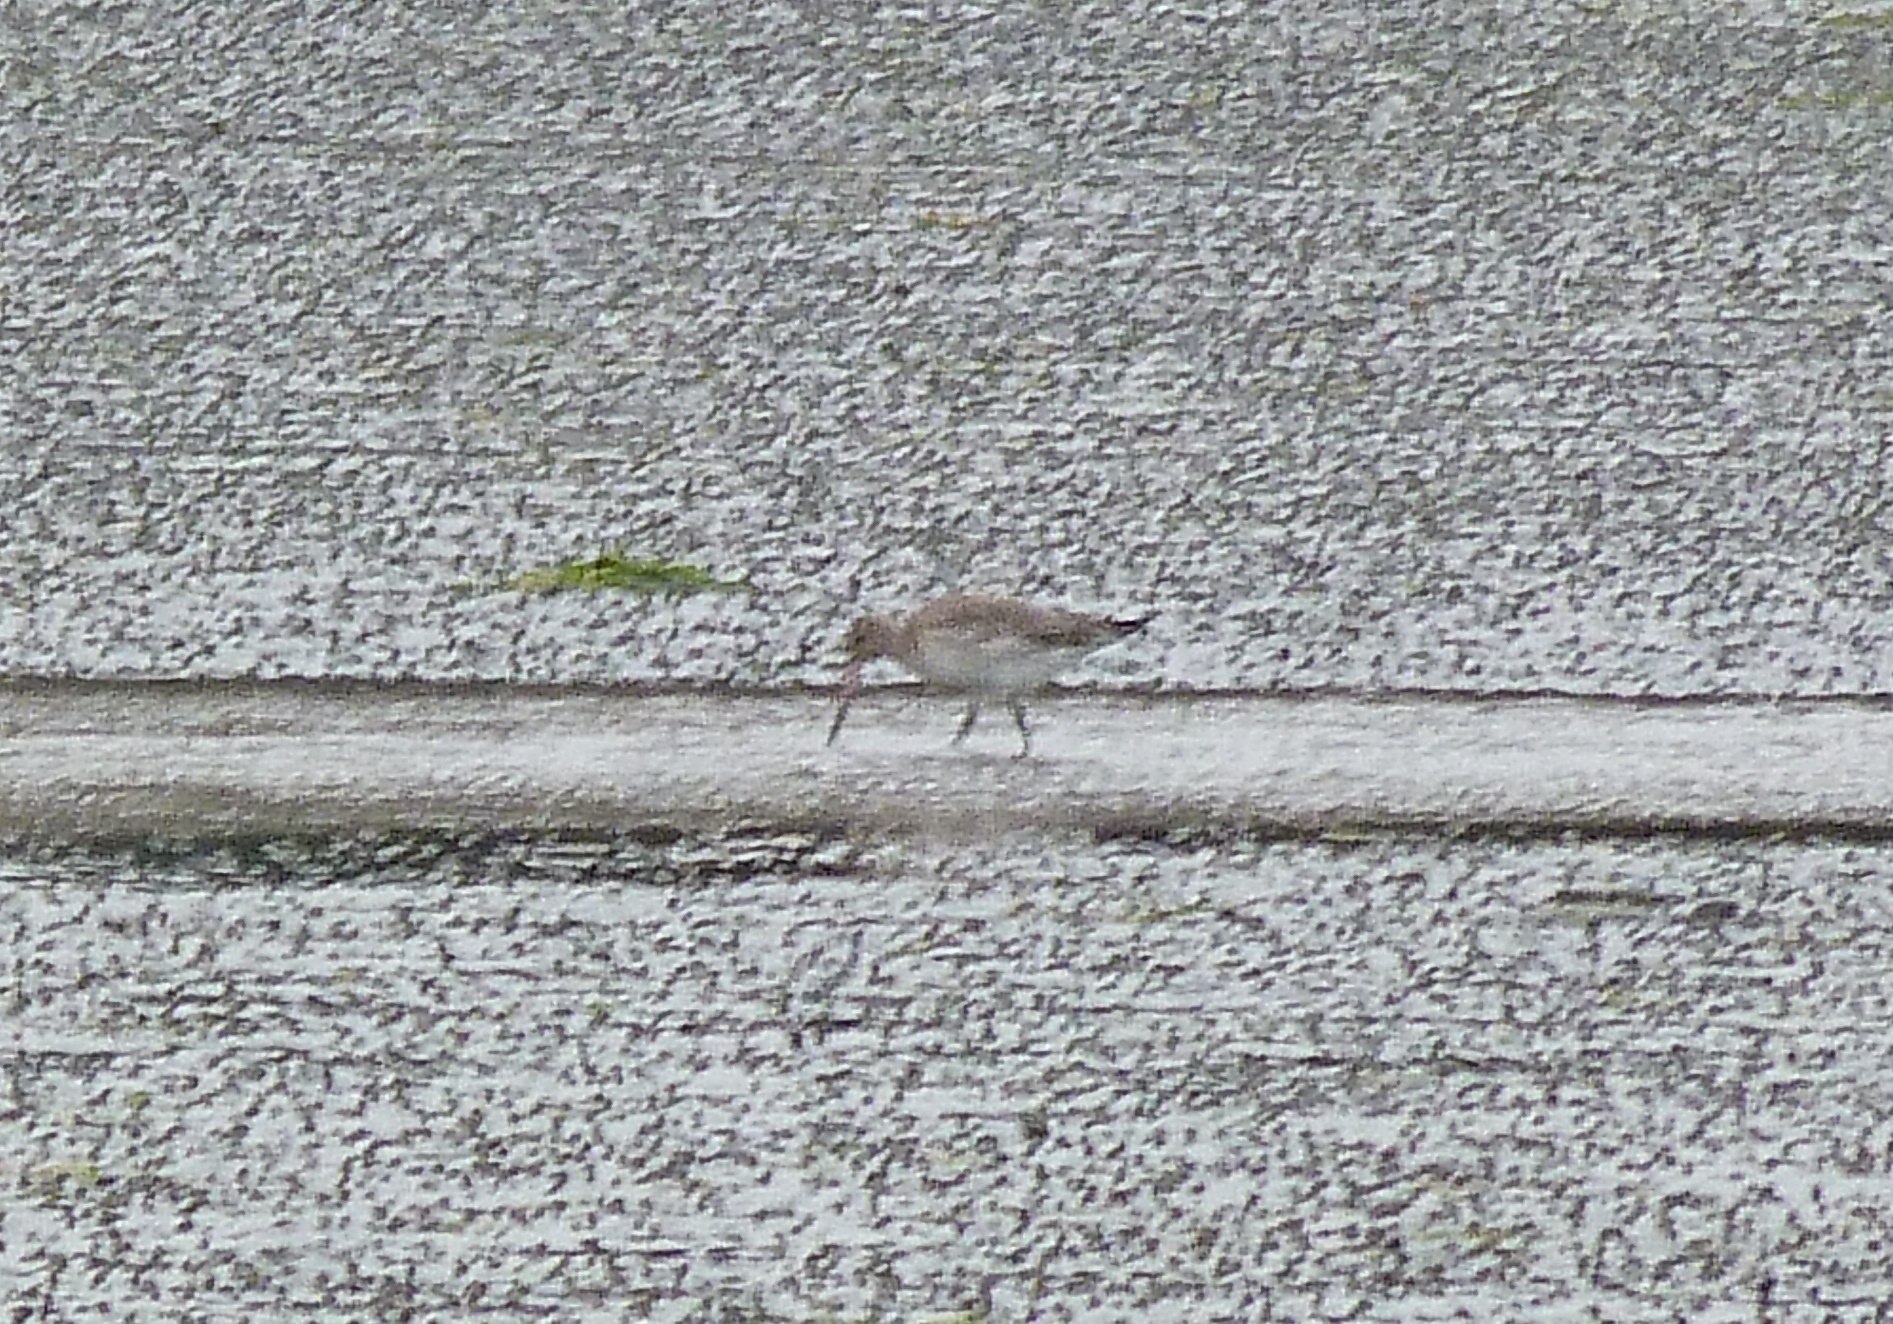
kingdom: Animalia
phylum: Chordata
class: Aves
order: Charadriiformes
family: Scolopacidae
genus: Limosa
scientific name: Limosa lapponica
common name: Bar-tailed godwit
